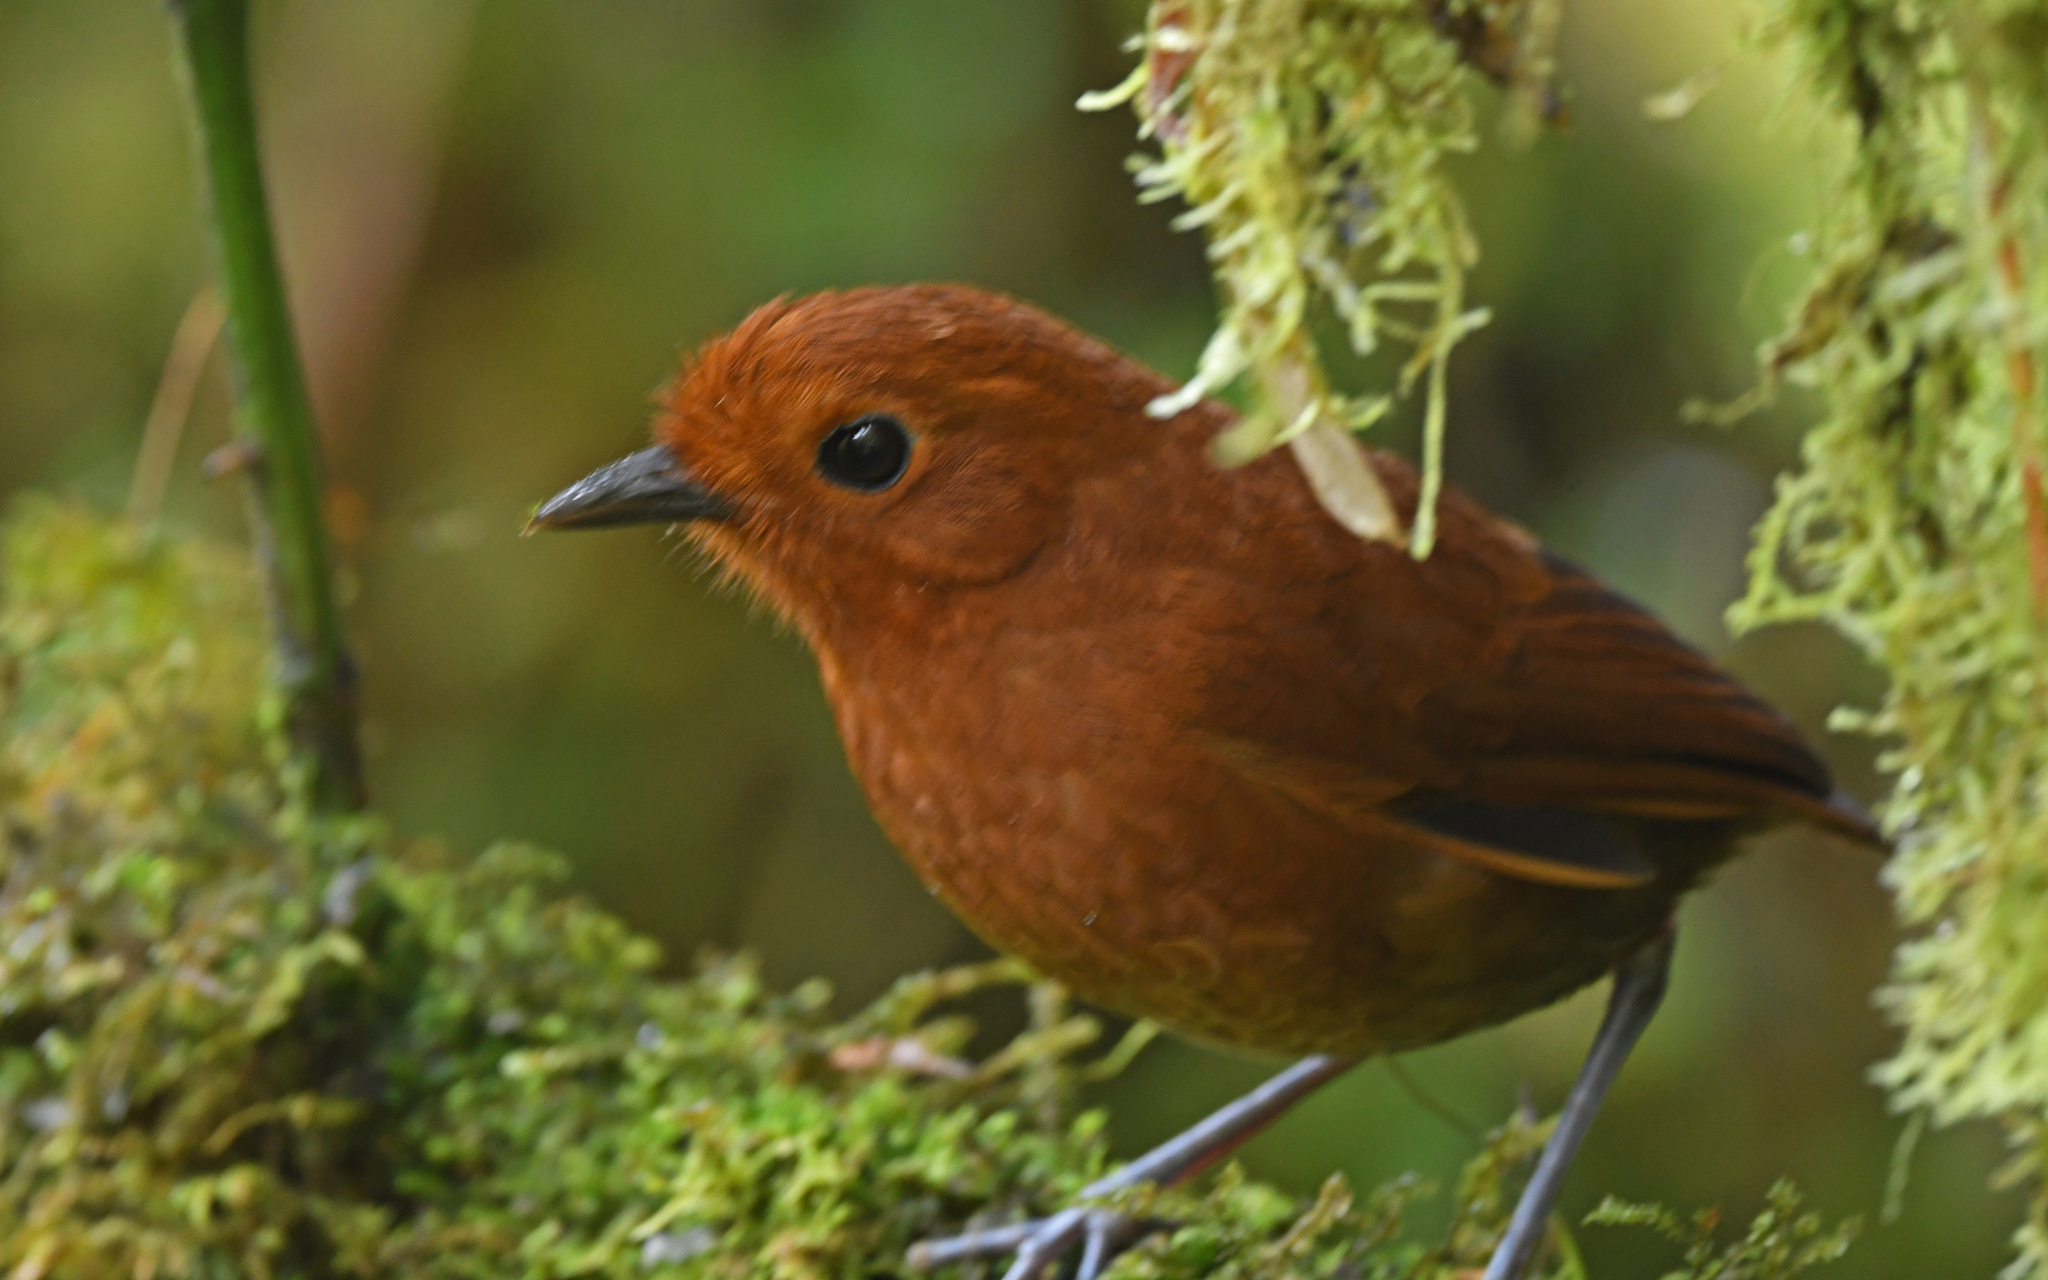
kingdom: Animalia
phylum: Chordata
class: Aves
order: Passeriformes
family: Grallariidae
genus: Grallaria
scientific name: Grallaria alvarezi
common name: Chami antpitta
